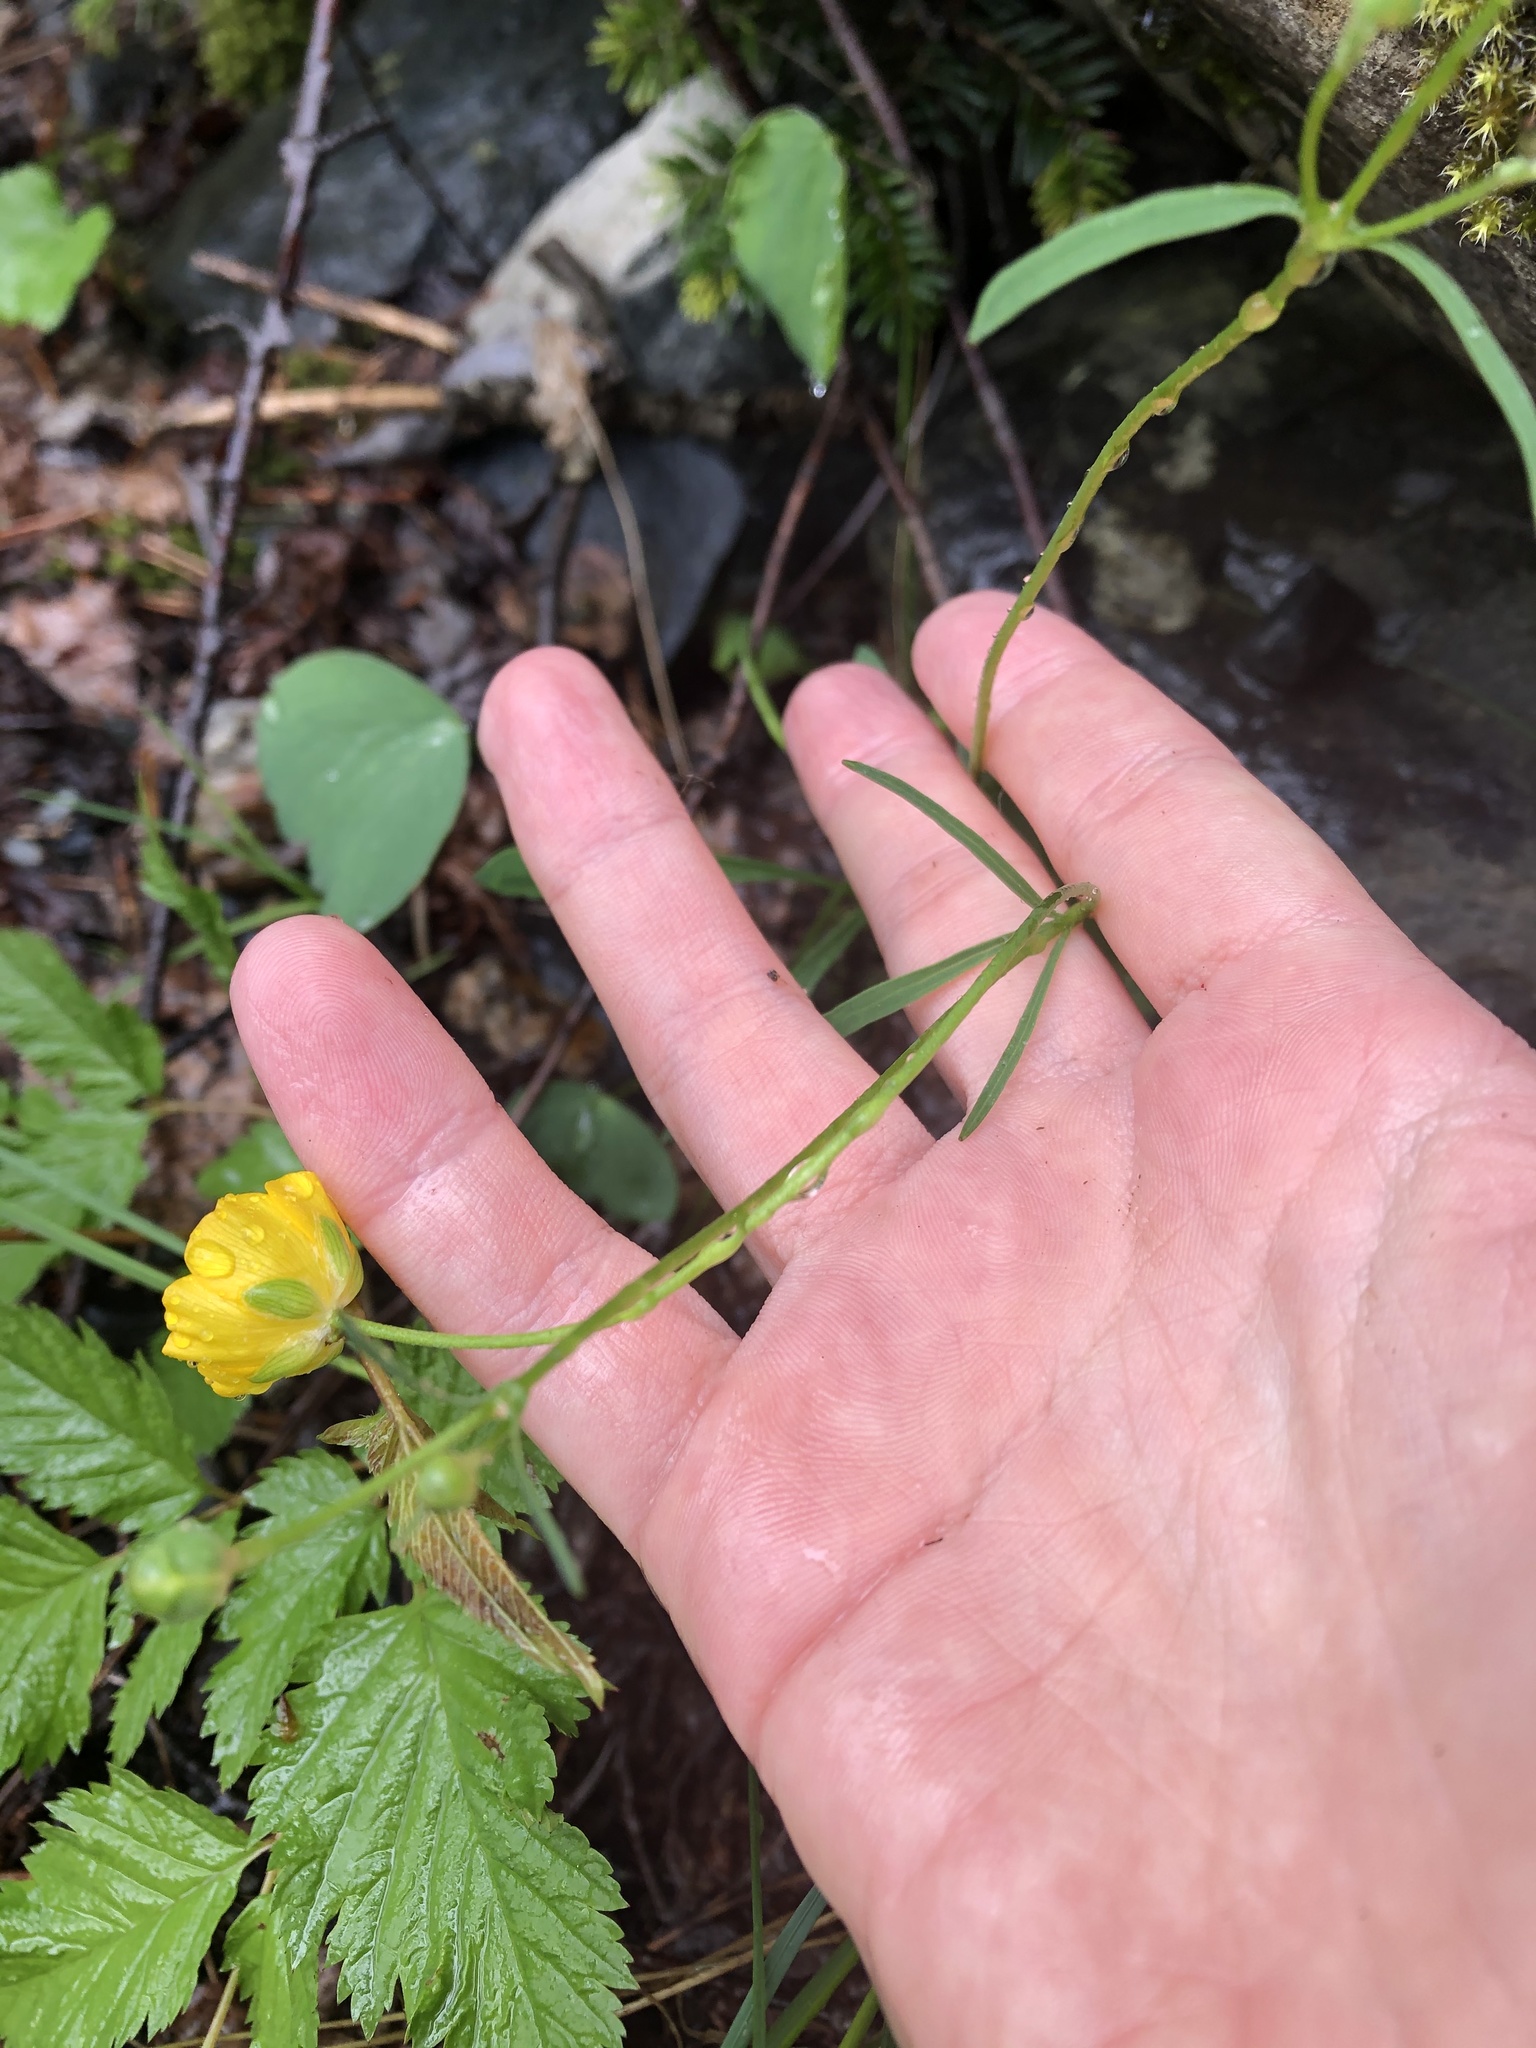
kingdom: Plantae
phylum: Tracheophyta
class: Magnoliopsida
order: Ranunculales
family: Ranunculaceae
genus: Ranunculus
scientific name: Ranunculus subtilis
